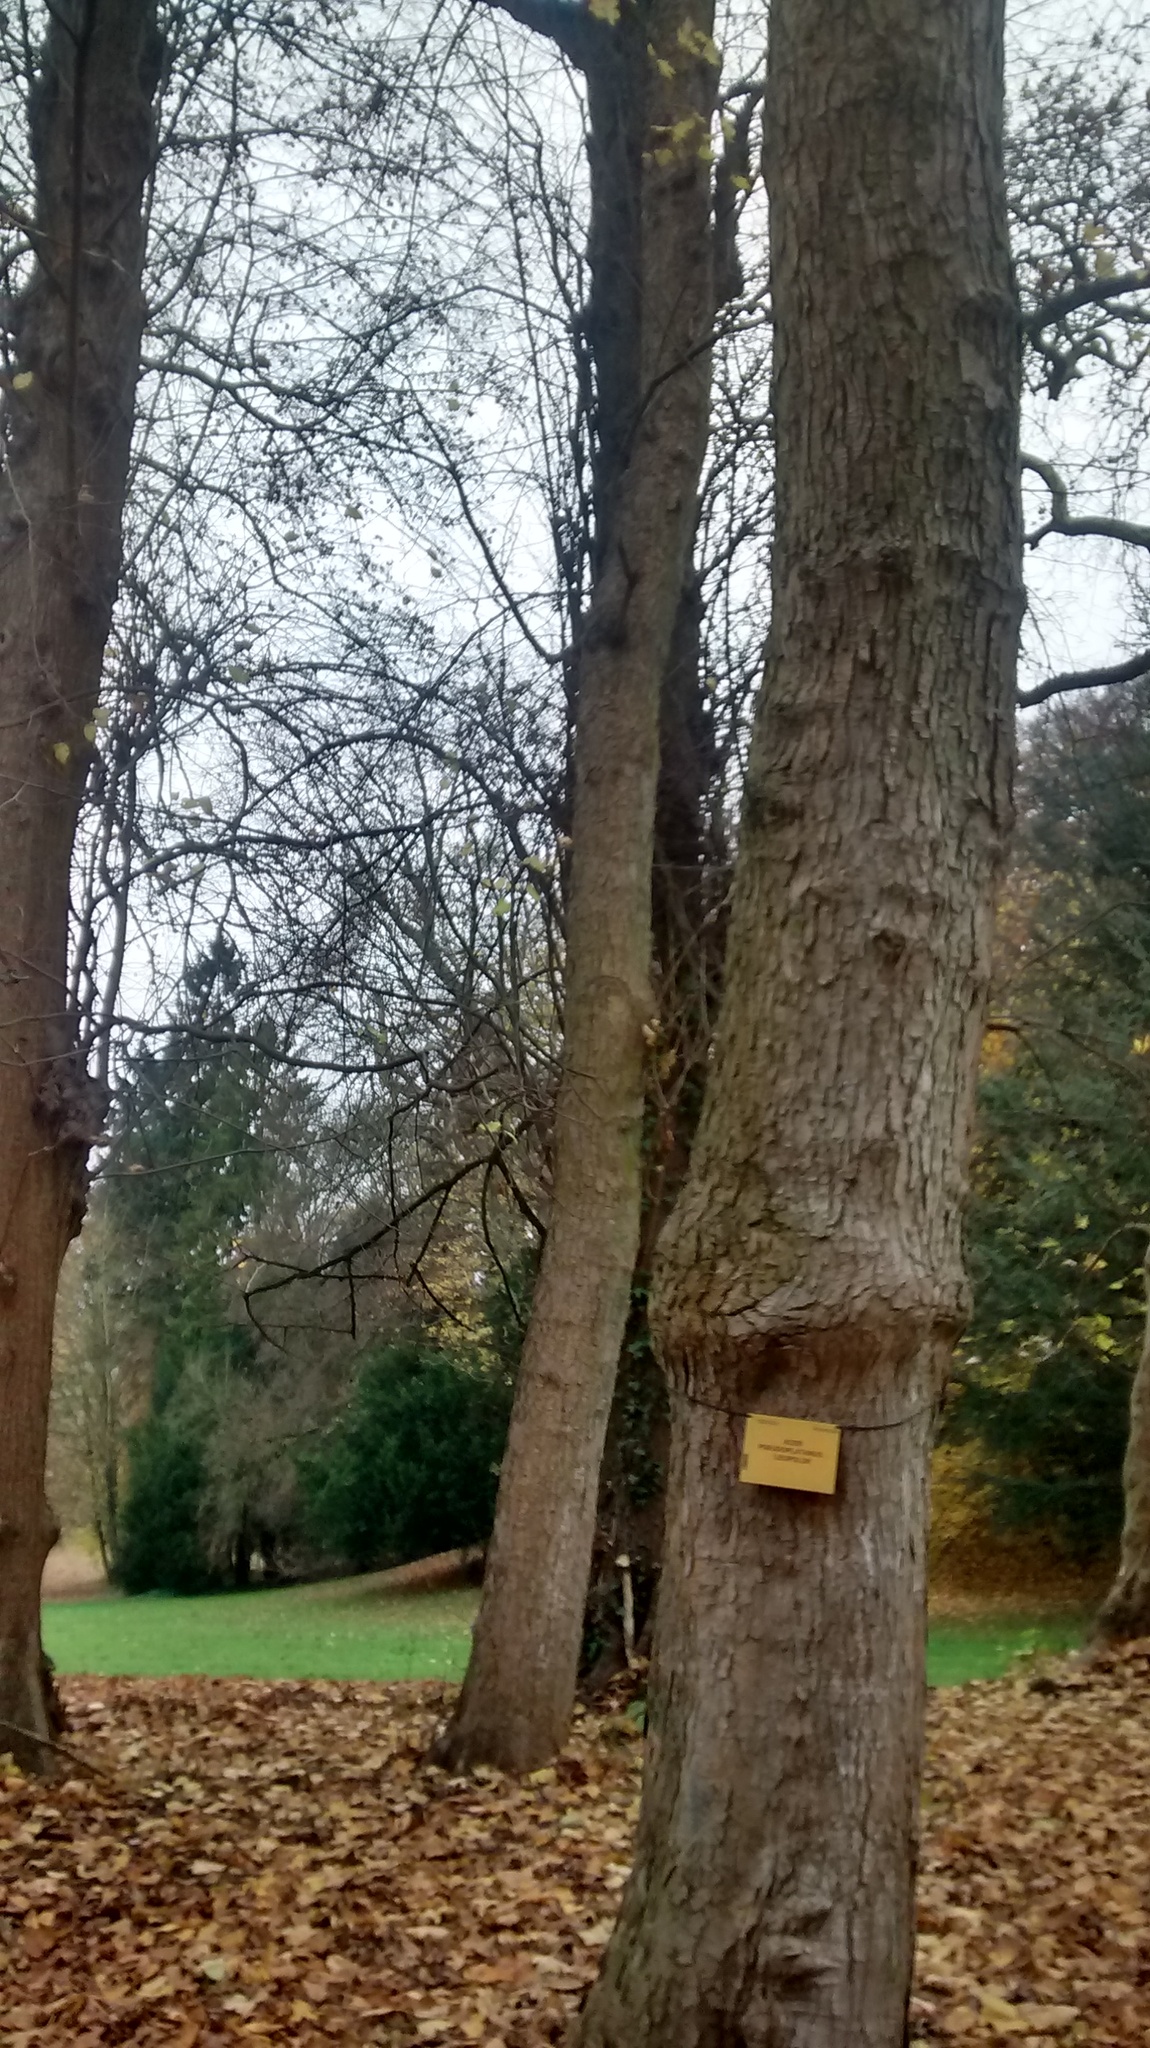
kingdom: Animalia
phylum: Chordata
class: Aves
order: Passeriformes
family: Sittidae
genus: Sitta
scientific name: Sitta europaea
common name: Eurasian nuthatch
